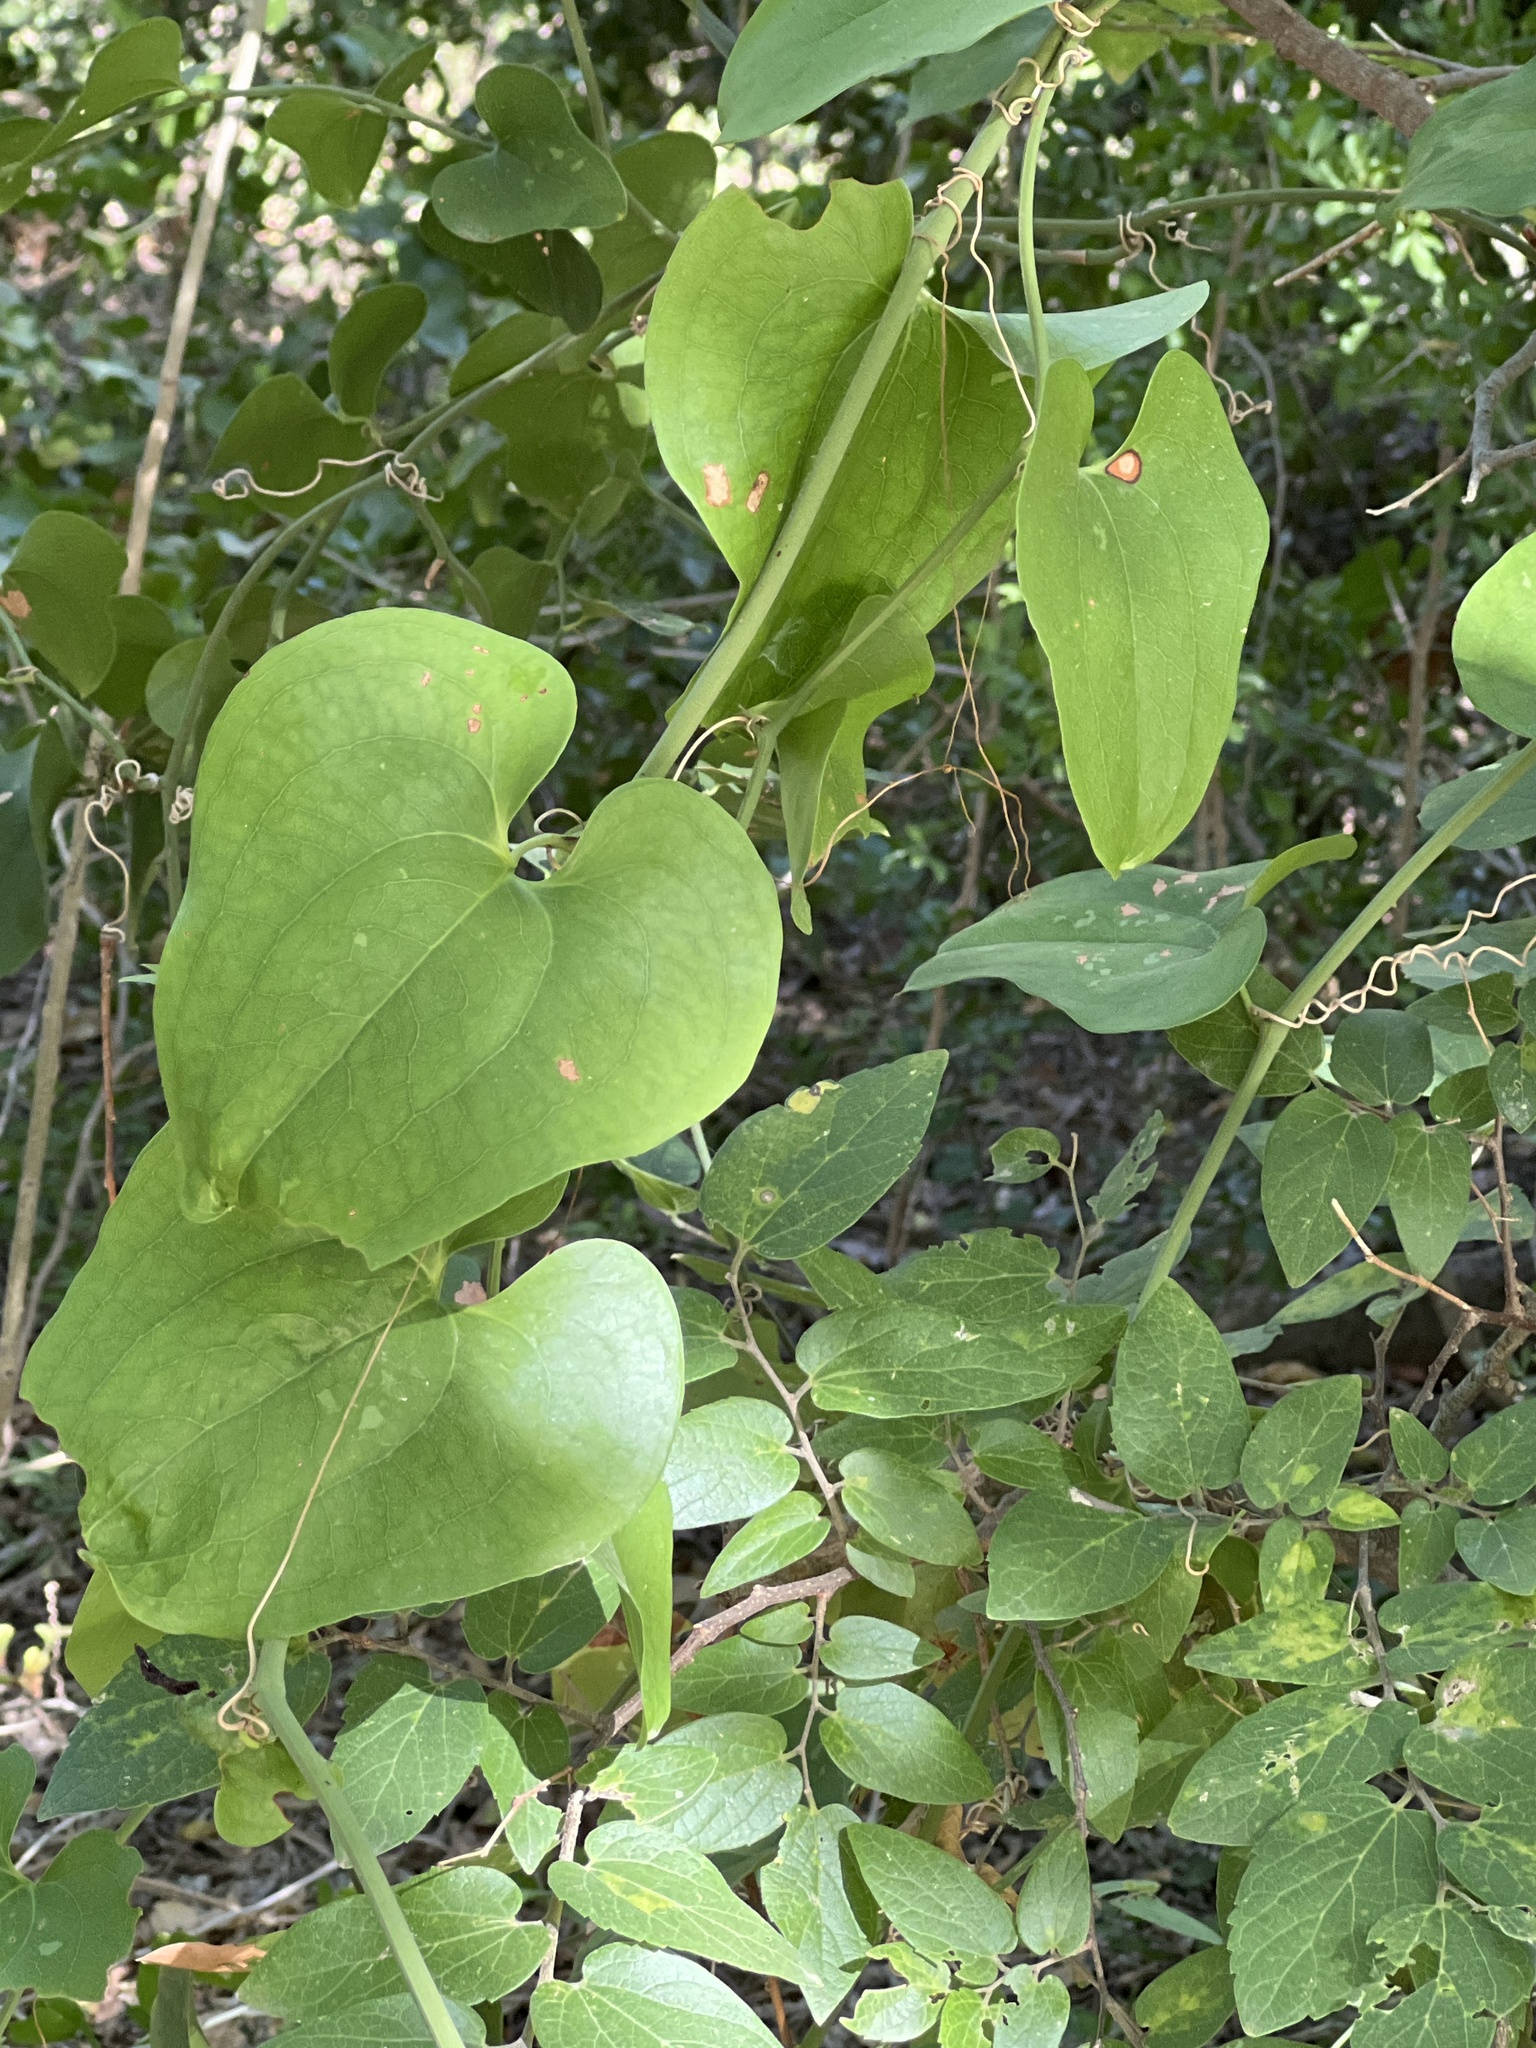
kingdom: Plantae
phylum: Tracheophyta
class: Liliopsida
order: Liliales
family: Smilacaceae
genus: Smilax
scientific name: Smilax bona-nox
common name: Catbrier
